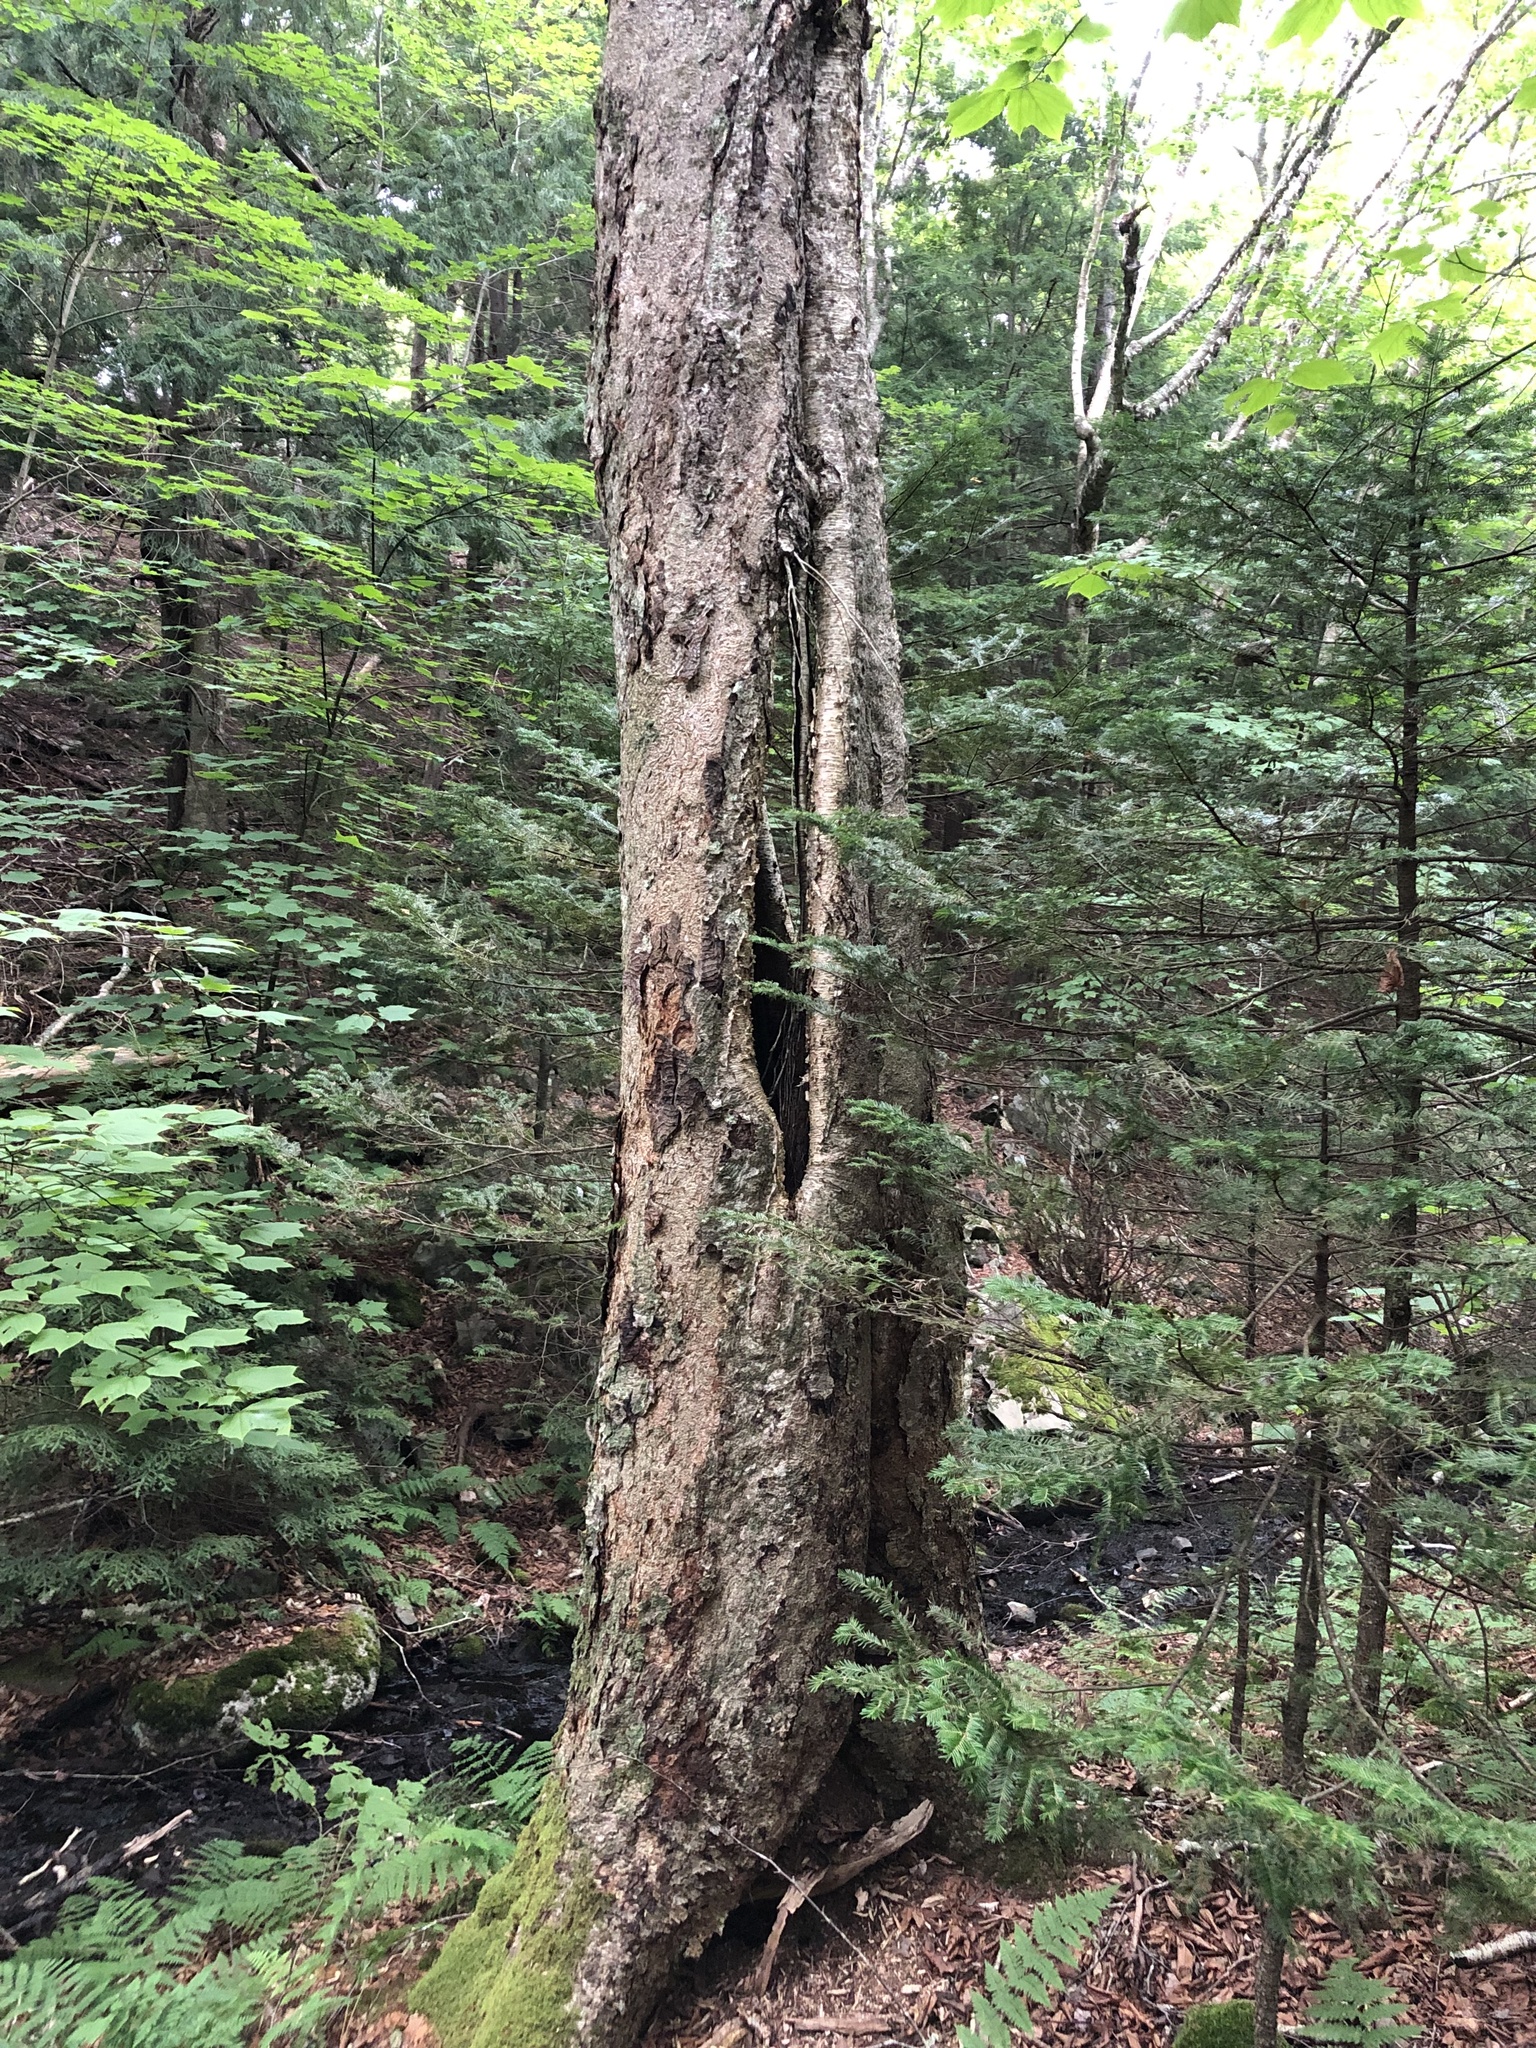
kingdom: Plantae
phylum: Tracheophyta
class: Magnoliopsida
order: Fagales
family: Betulaceae
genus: Betula
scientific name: Betula alleghaniensis
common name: Yellow birch
